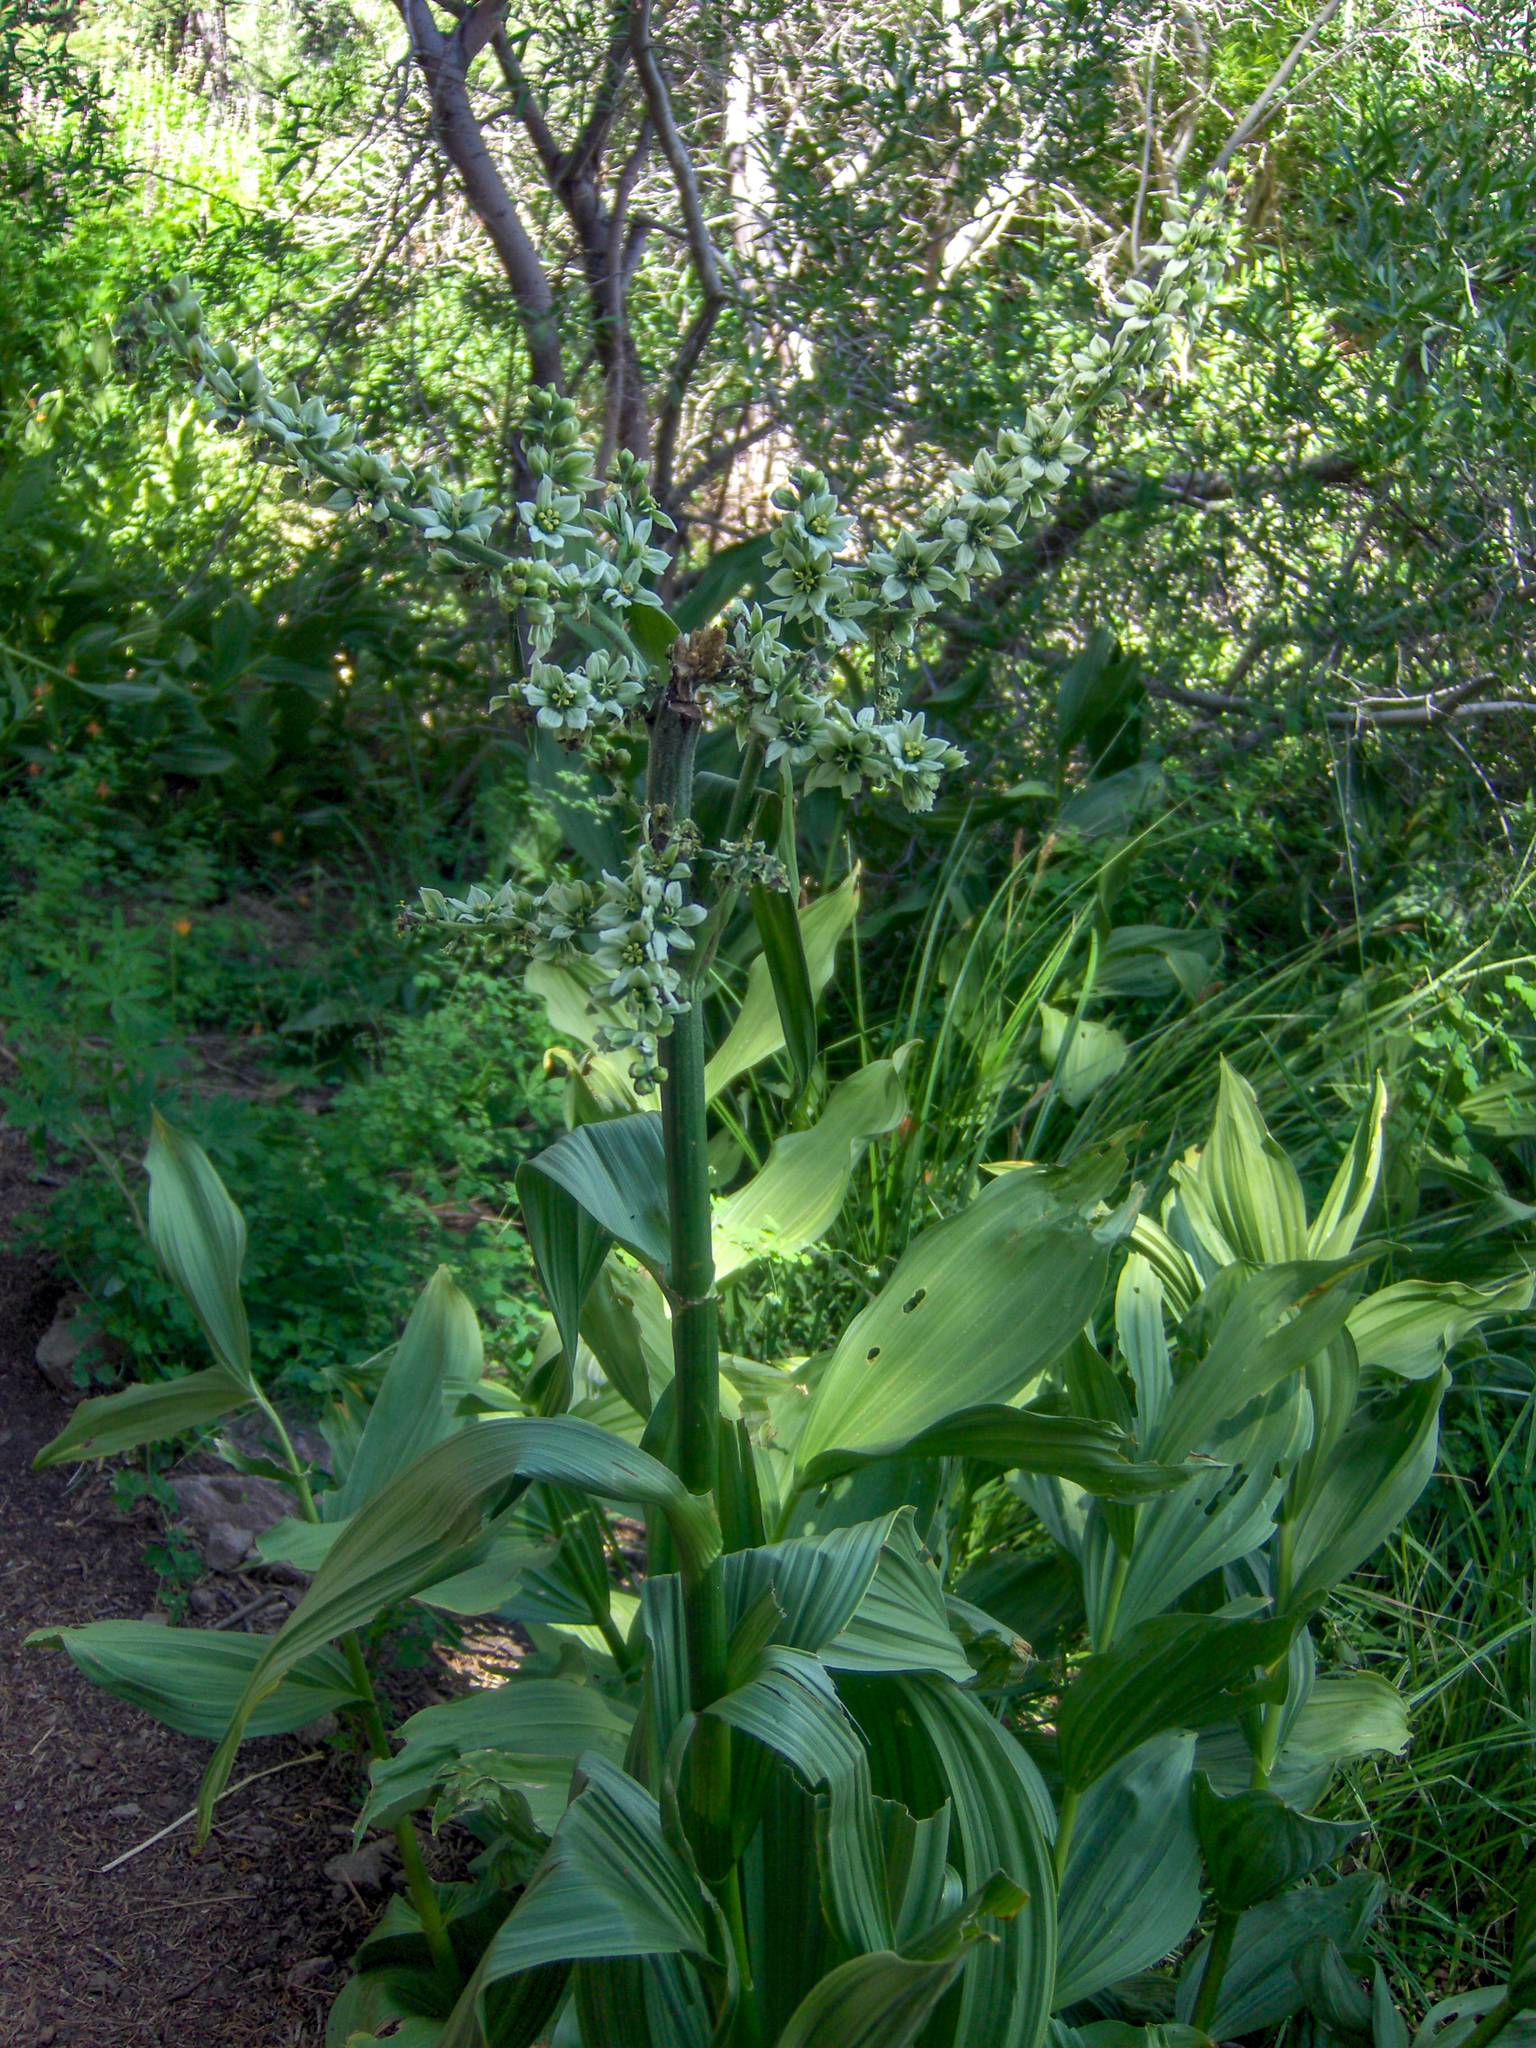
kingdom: Plantae
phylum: Tracheophyta
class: Liliopsida
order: Liliales
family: Melanthiaceae
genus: Veratrum
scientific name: Veratrum californicum
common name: California veratrum
